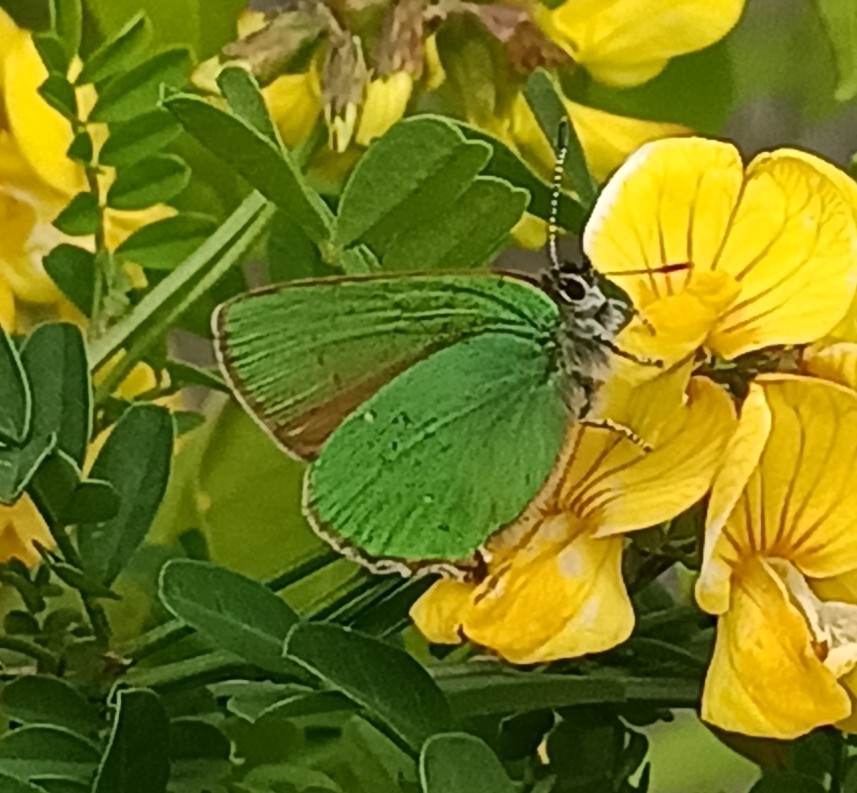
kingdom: Animalia
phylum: Arthropoda
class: Insecta
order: Lepidoptera
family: Lycaenidae
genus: Callophrys
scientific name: Callophrys rubi
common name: Green hairstreak
